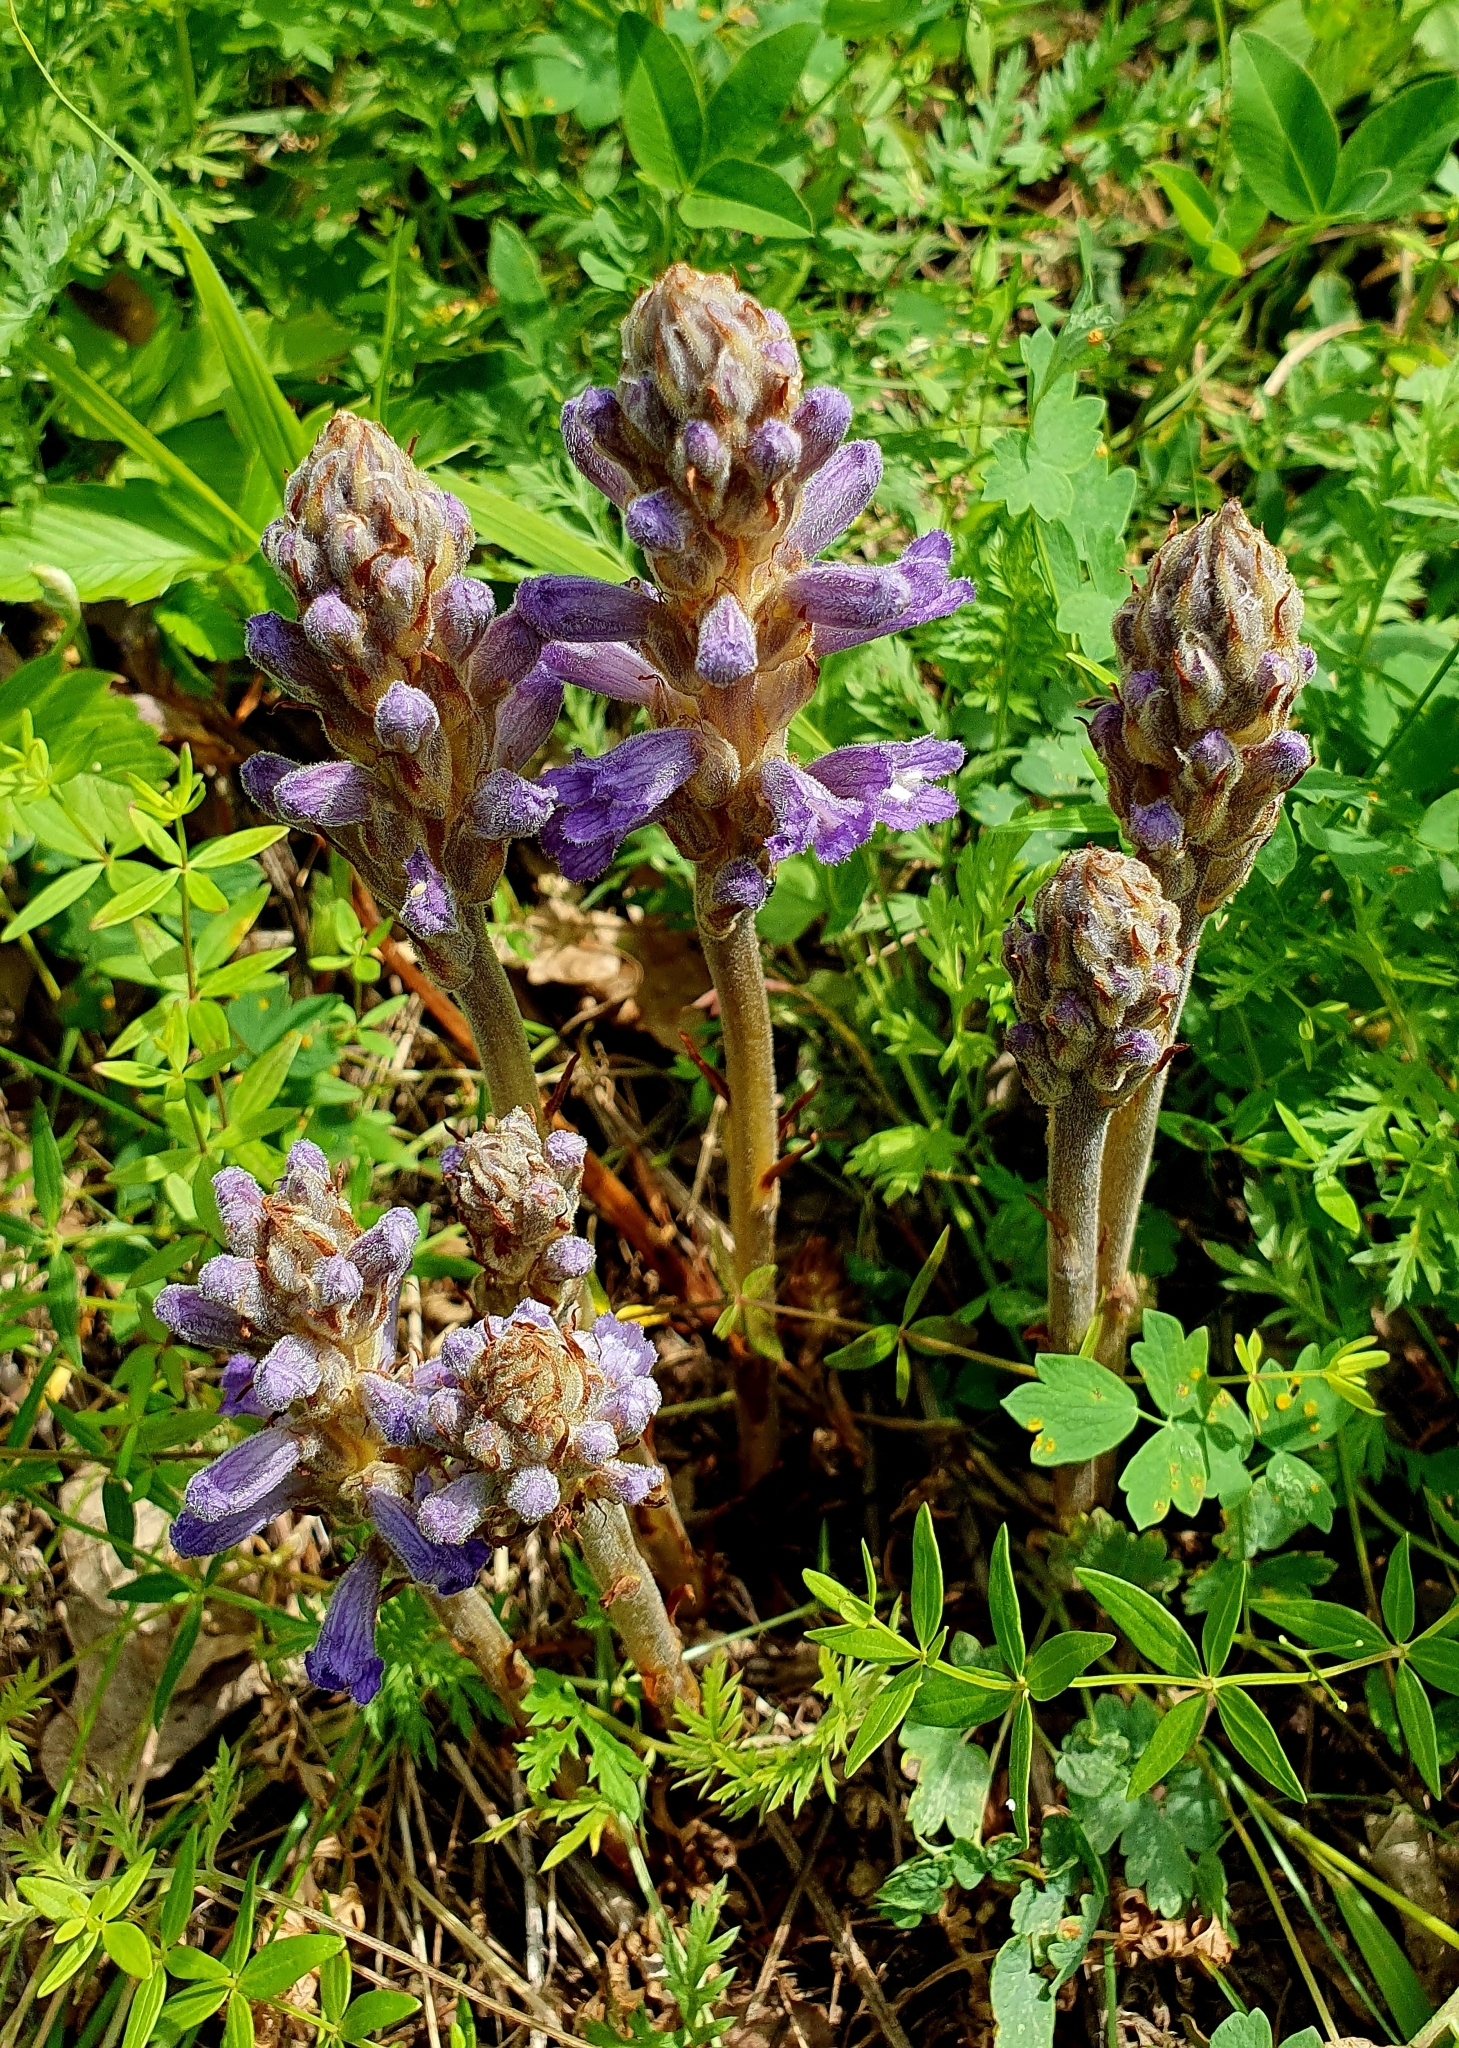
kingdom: Plantae
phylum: Tracheophyta
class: Magnoliopsida
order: Lamiales
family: Orobanchaceae
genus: Phelipanche
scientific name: Phelipanche caesia
